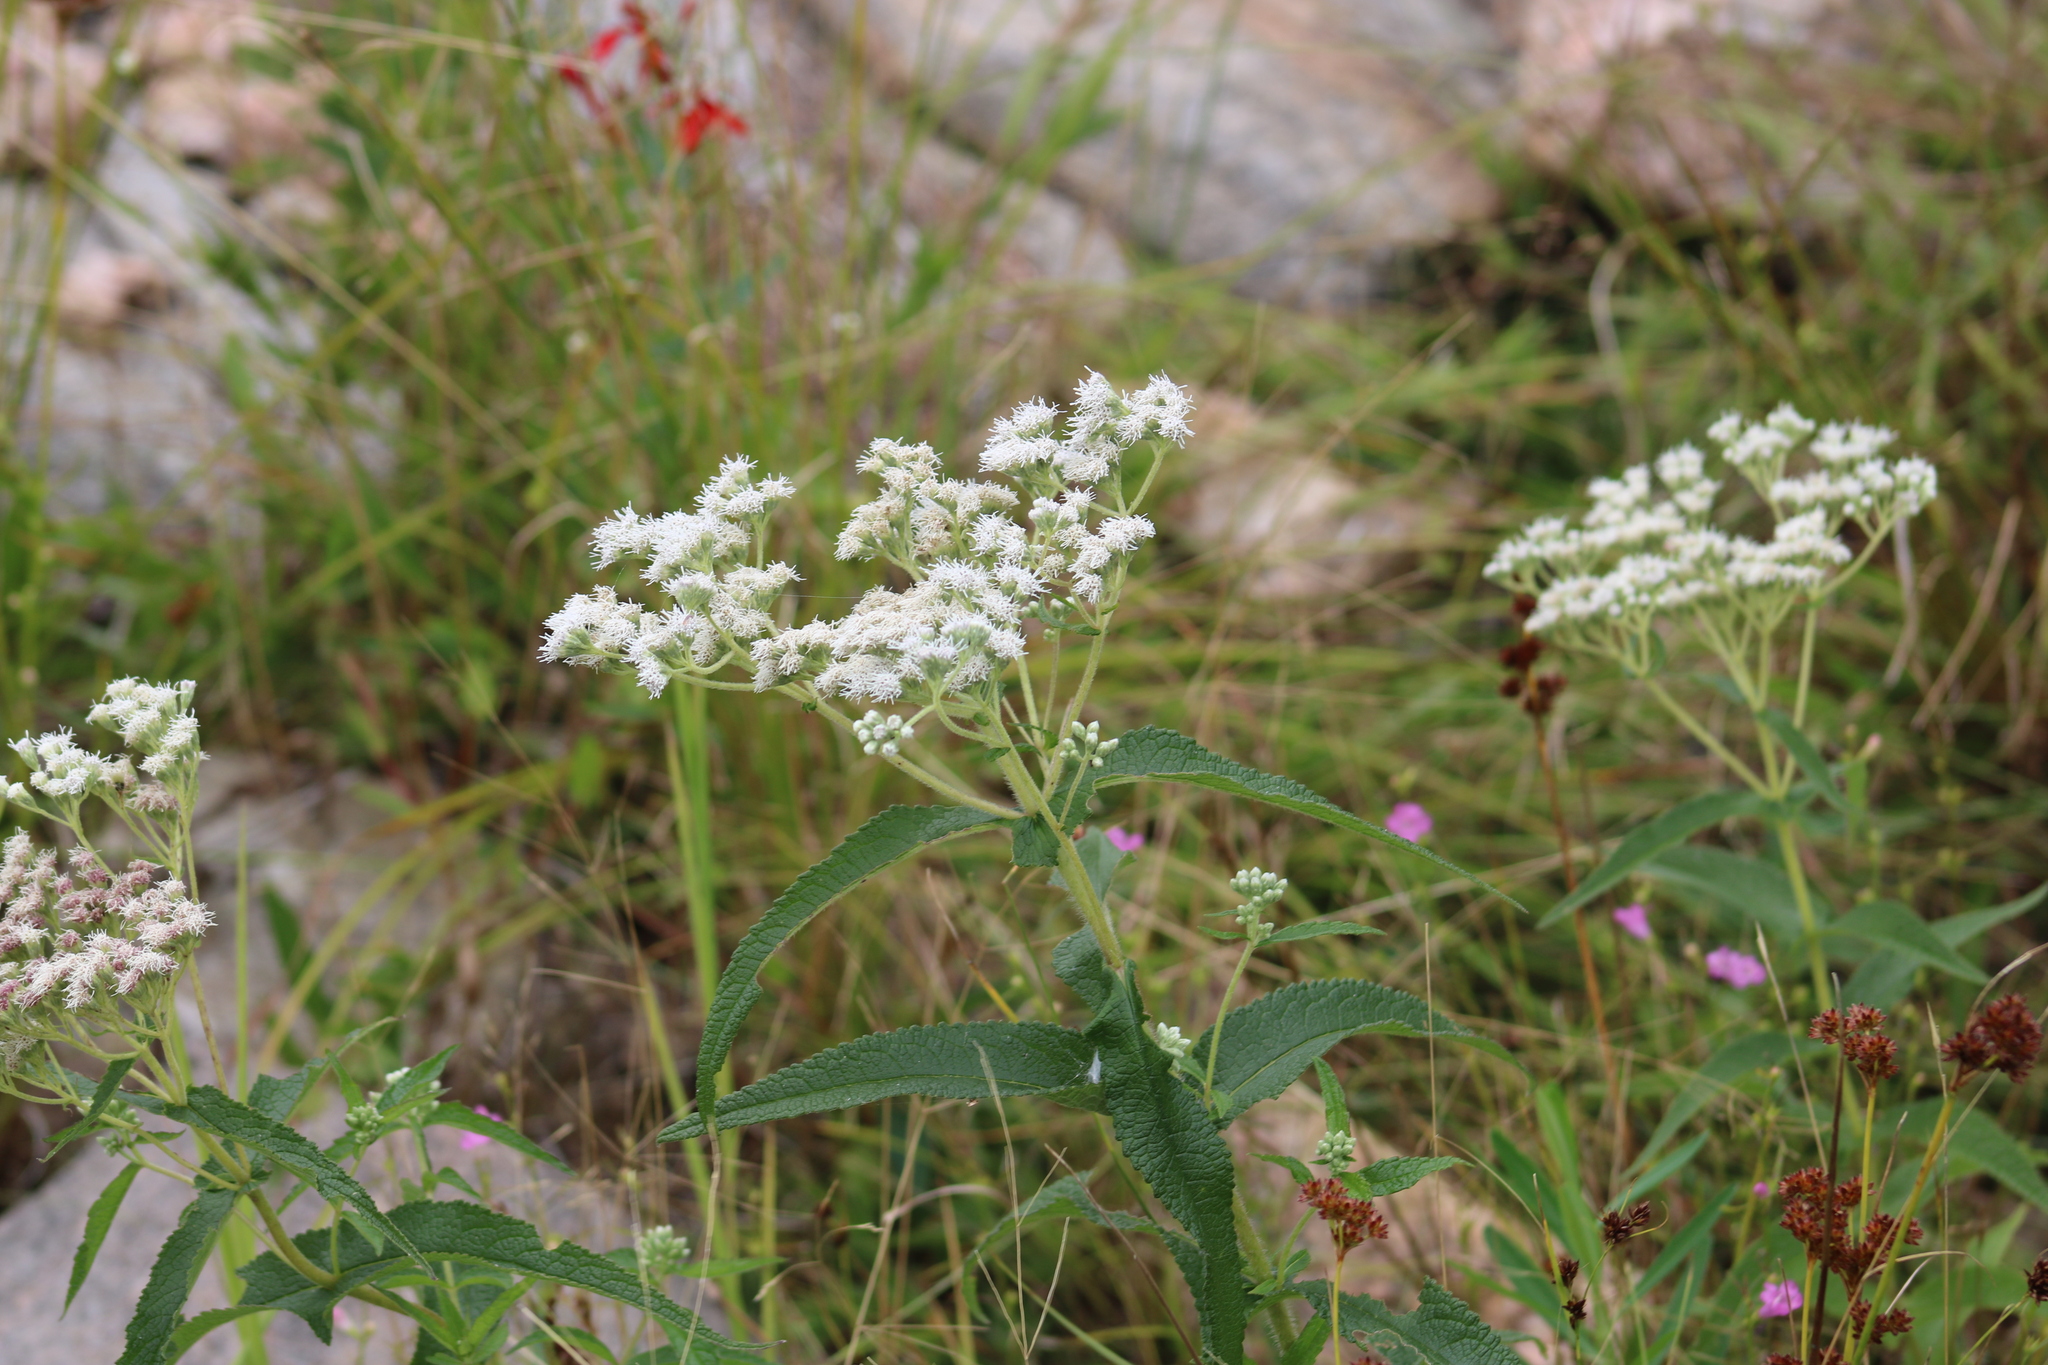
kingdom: Plantae
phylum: Tracheophyta
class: Magnoliopsida
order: Asterales
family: Asteraceae
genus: Eupatorium
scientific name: Eupatorium perfoliatum
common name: Boneset
